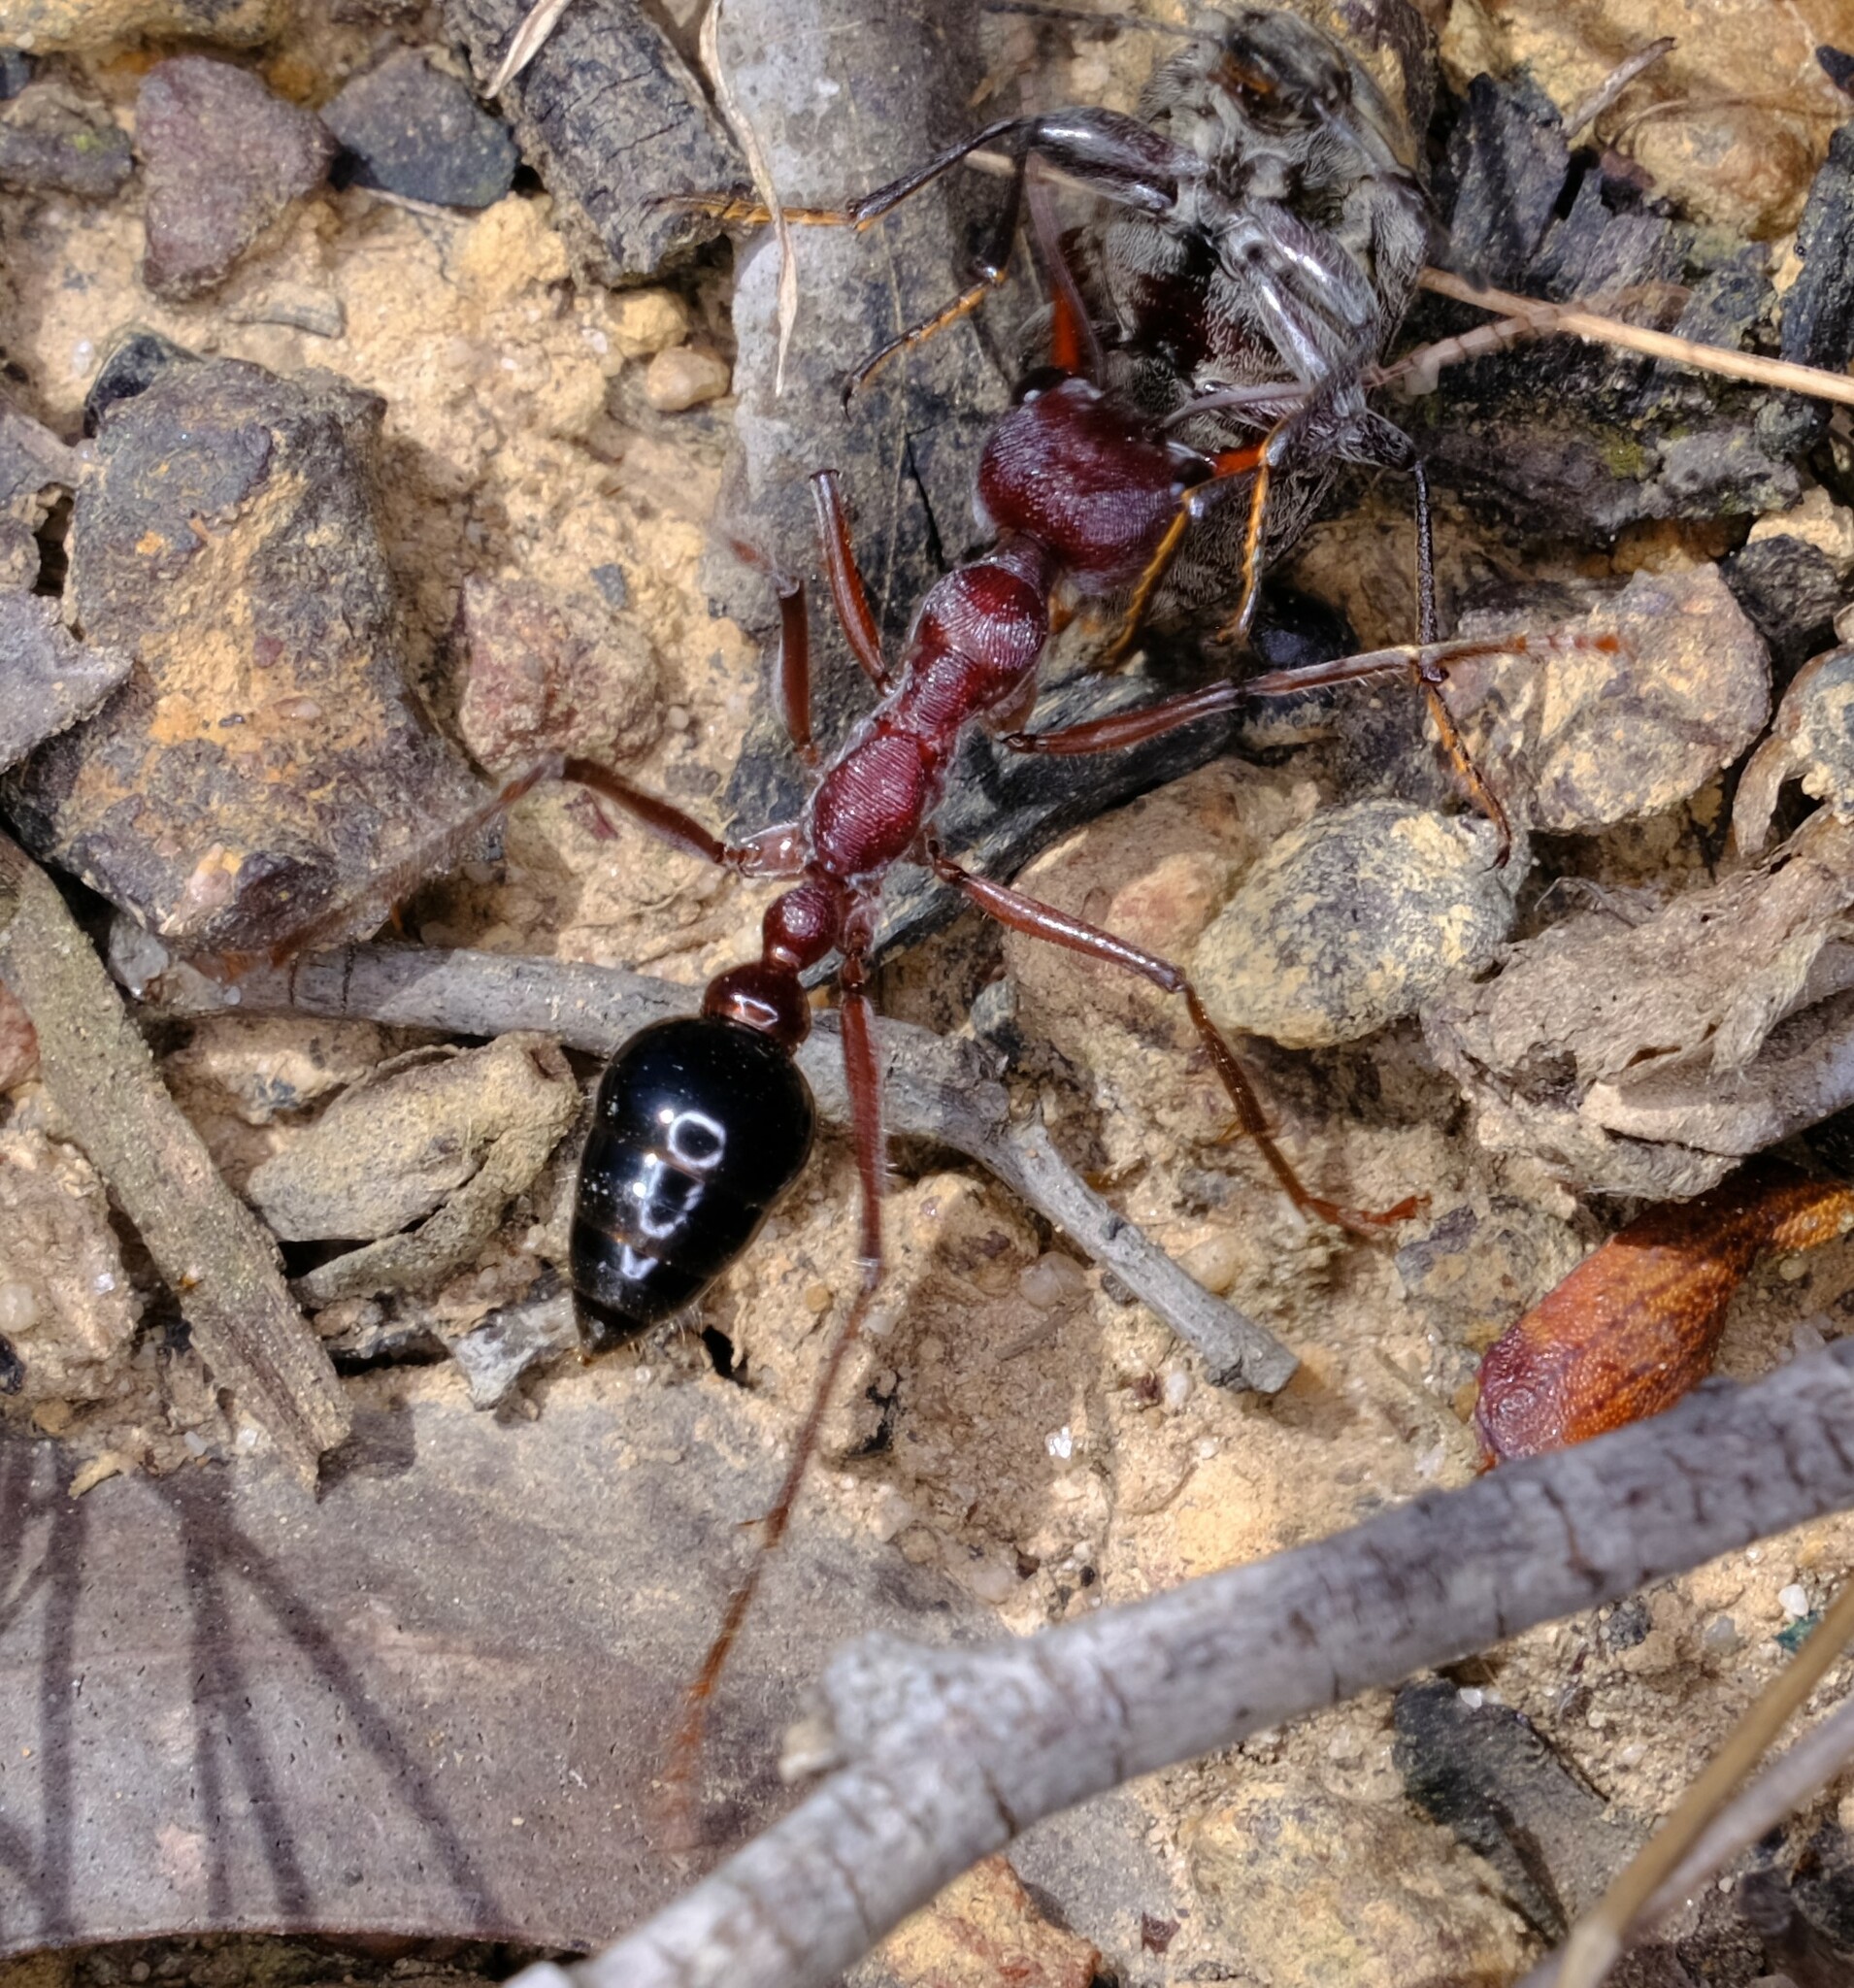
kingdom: Animalia
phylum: Arthropoda
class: Insecta
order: Hymenoptera
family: Formicidae
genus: Myrmecia
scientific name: Myrmecia simillima
